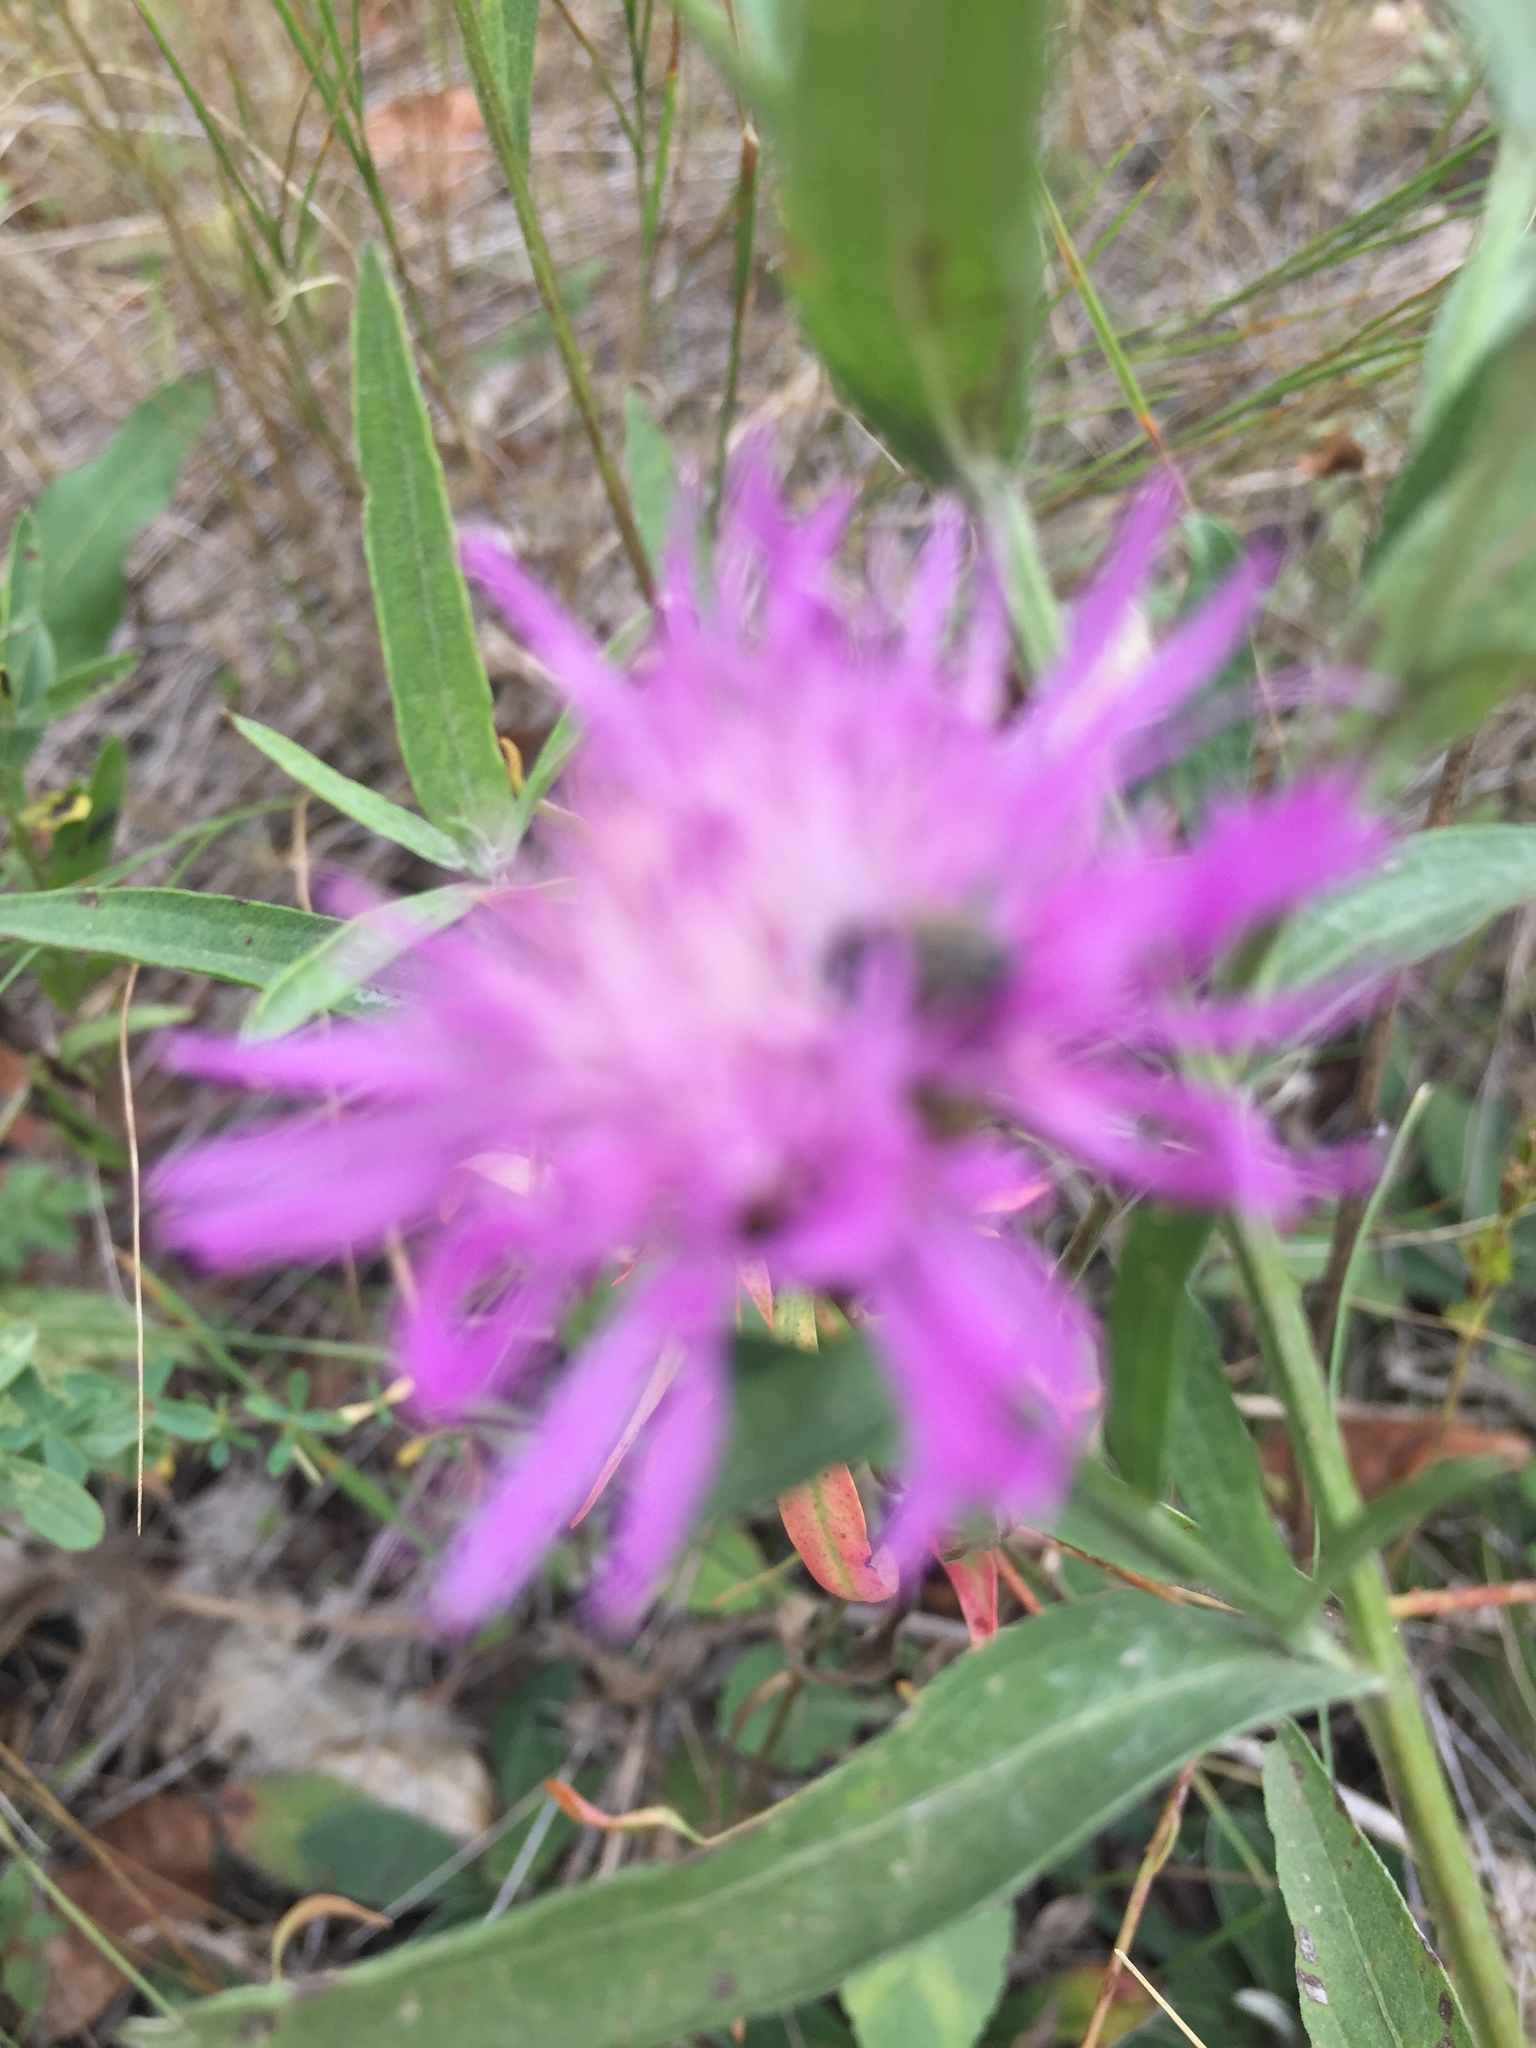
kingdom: Plantae
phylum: Tracheophyta
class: Magnoliopsida
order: Asterales
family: Asteraceae
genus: Centaurea
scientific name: Centaurea jacea
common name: Brown knapweed
